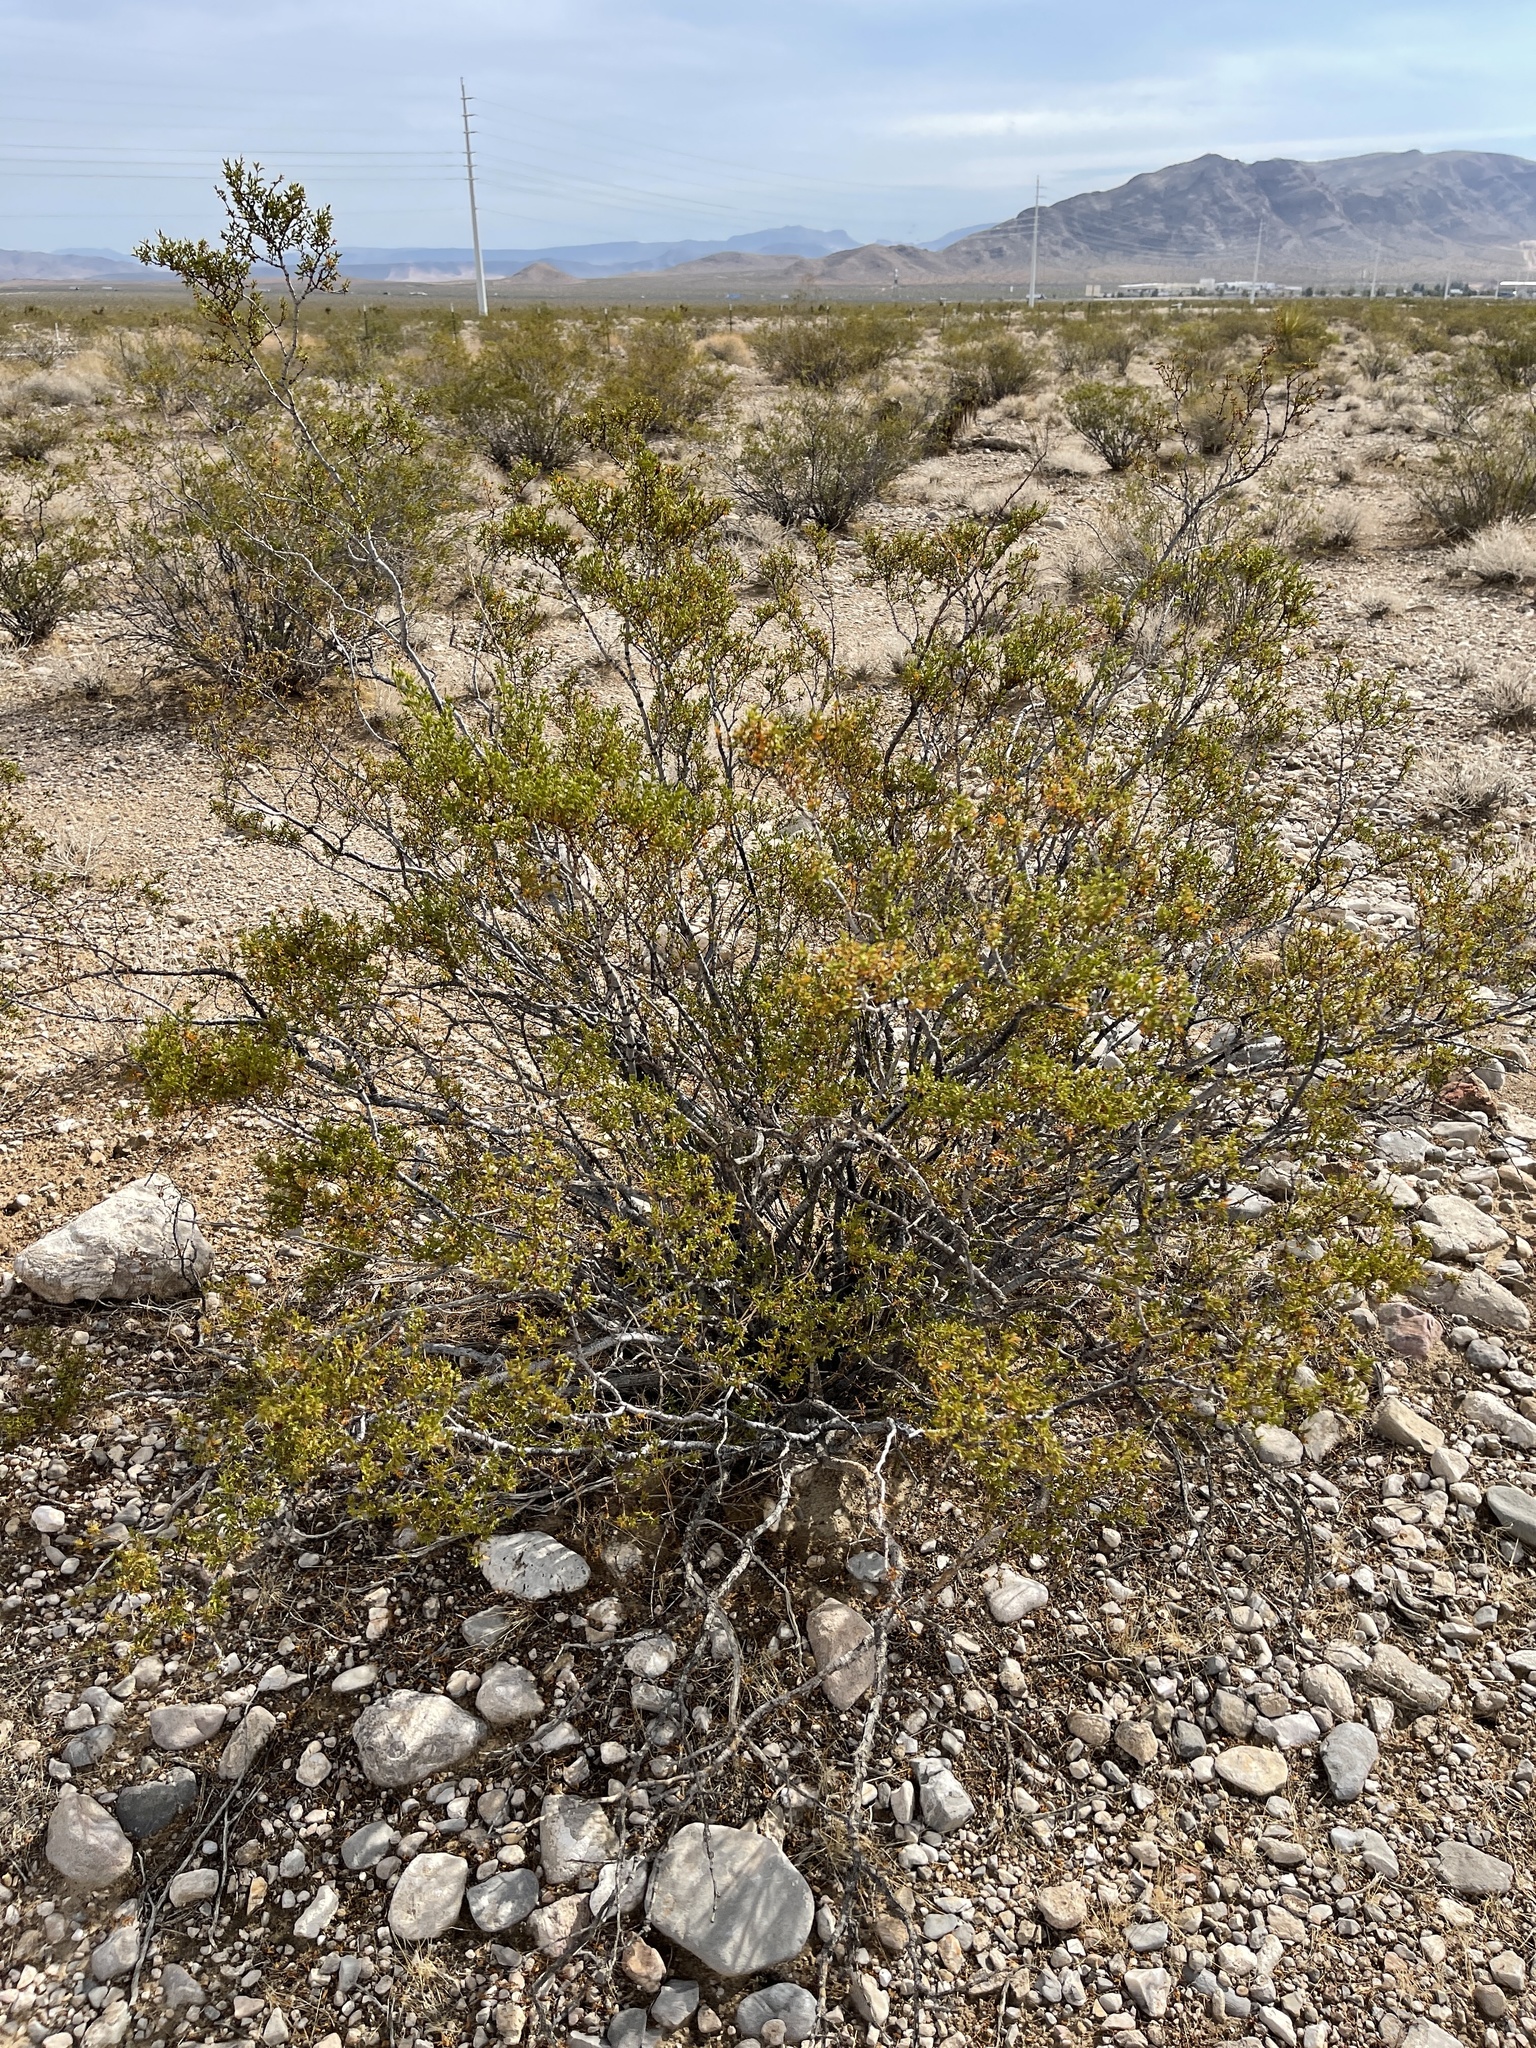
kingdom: Plantae
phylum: Tracheophyta
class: Magnoliopsida
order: Zygophyllales
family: Zygophyllaceae
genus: Larrea
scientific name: Larrea tridentata
